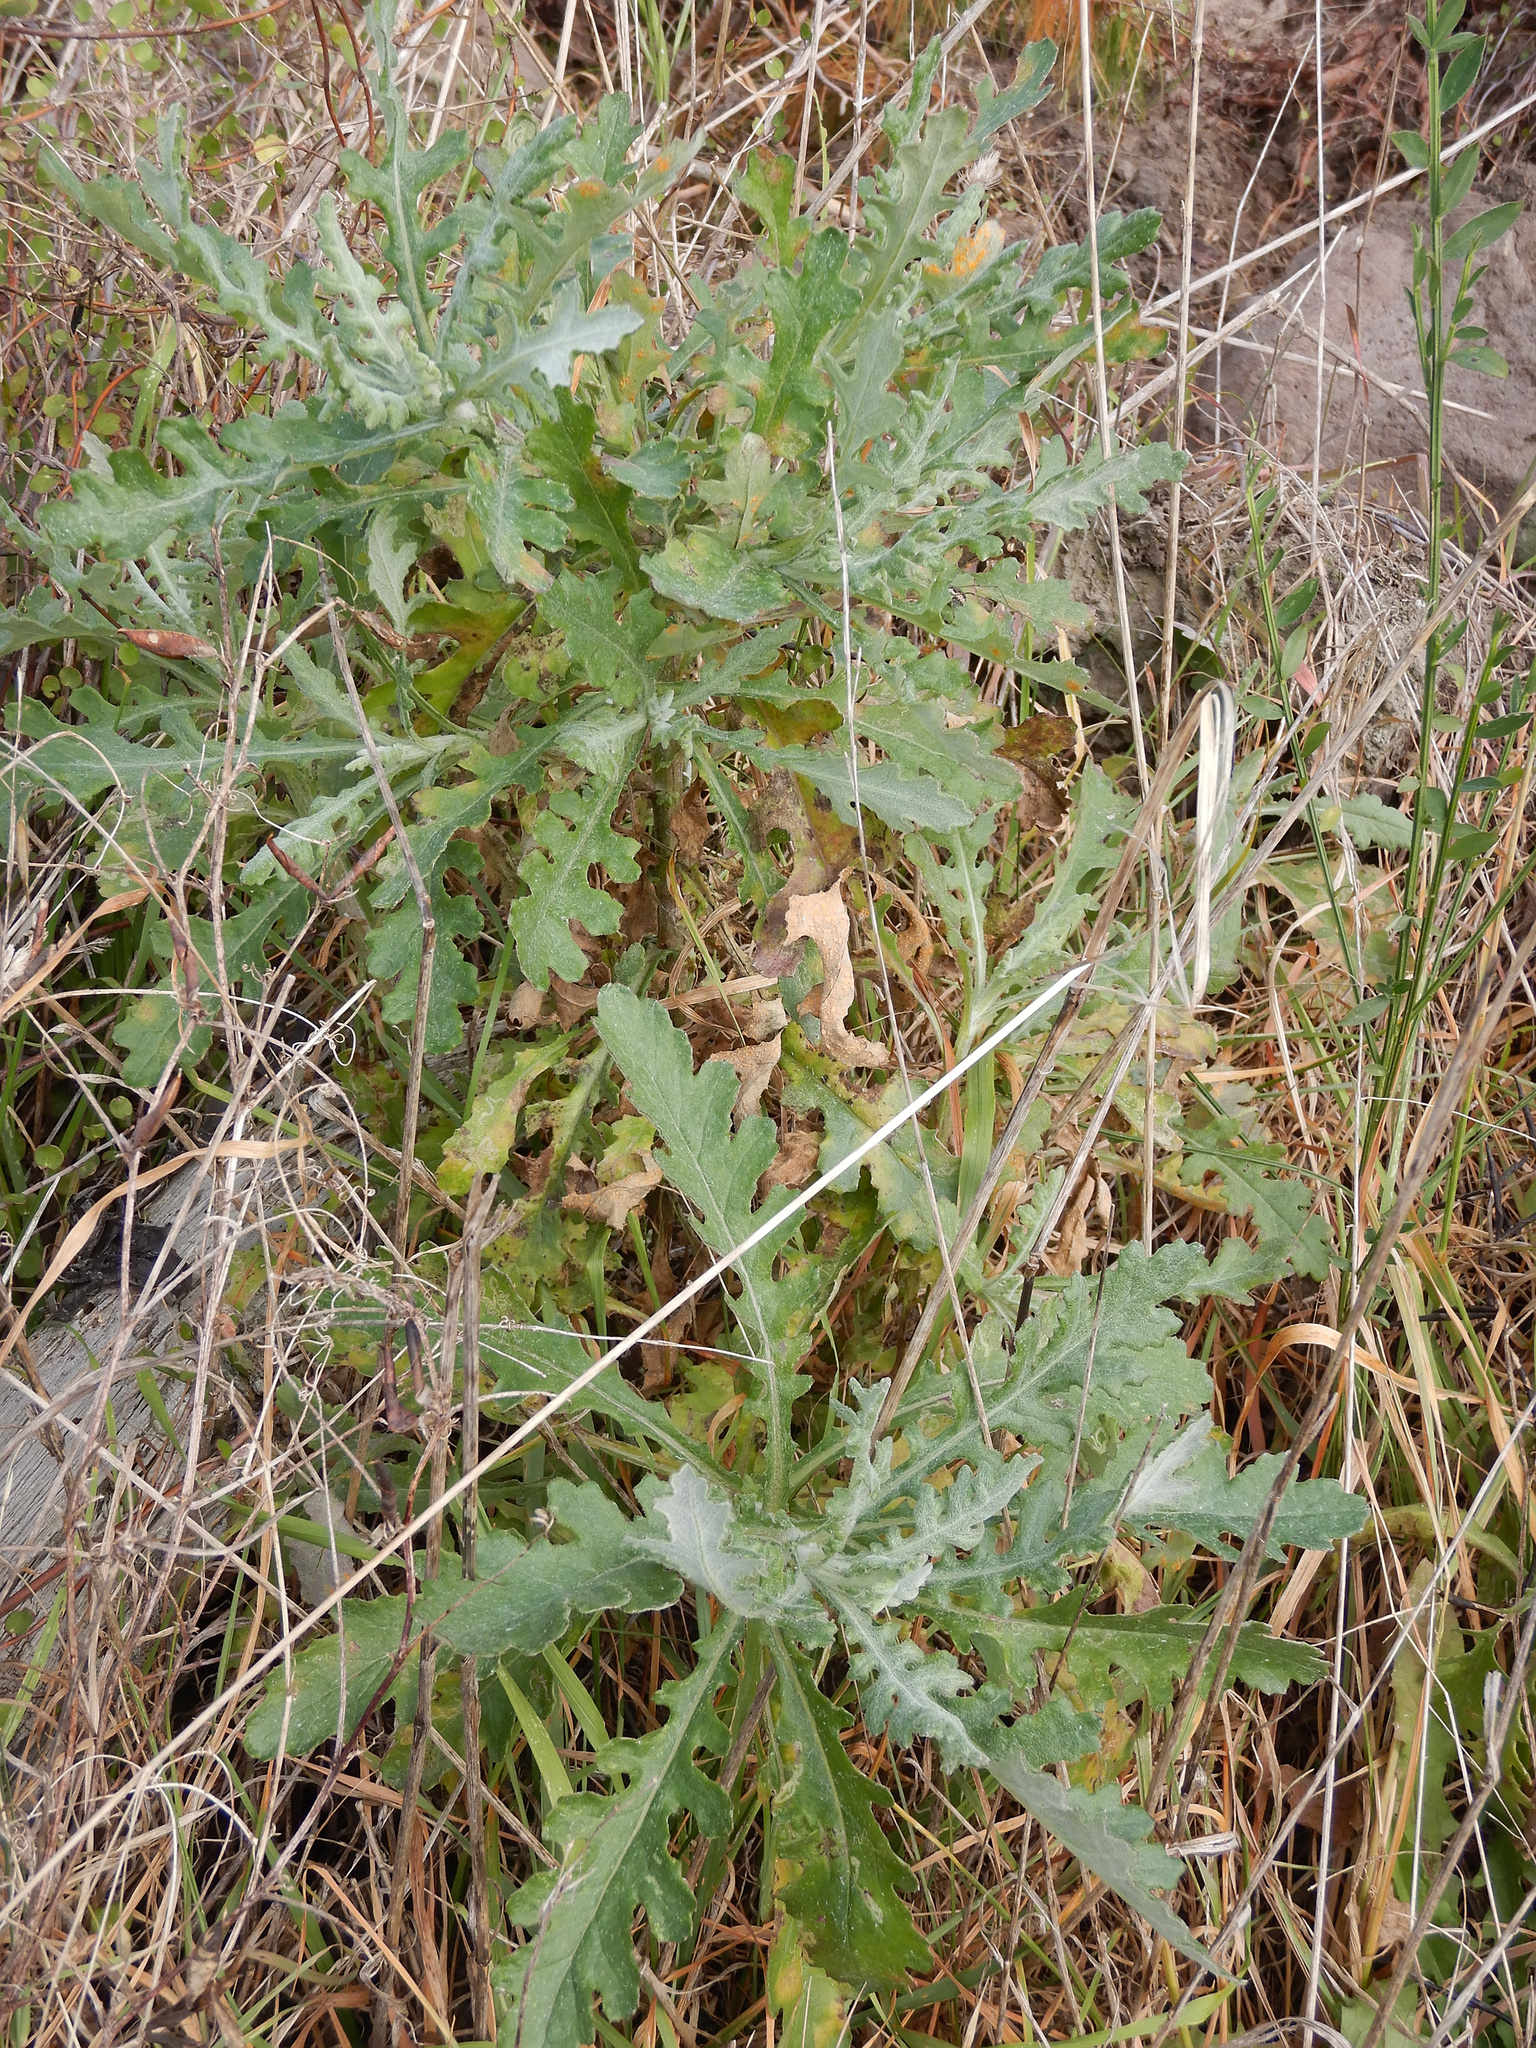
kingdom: Plantae
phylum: Tracheophyta
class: Magnoliopsida
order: Asterales
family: Asteraceae
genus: Senecio
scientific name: Senecio glomeratus
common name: Cutleaf burnweed
